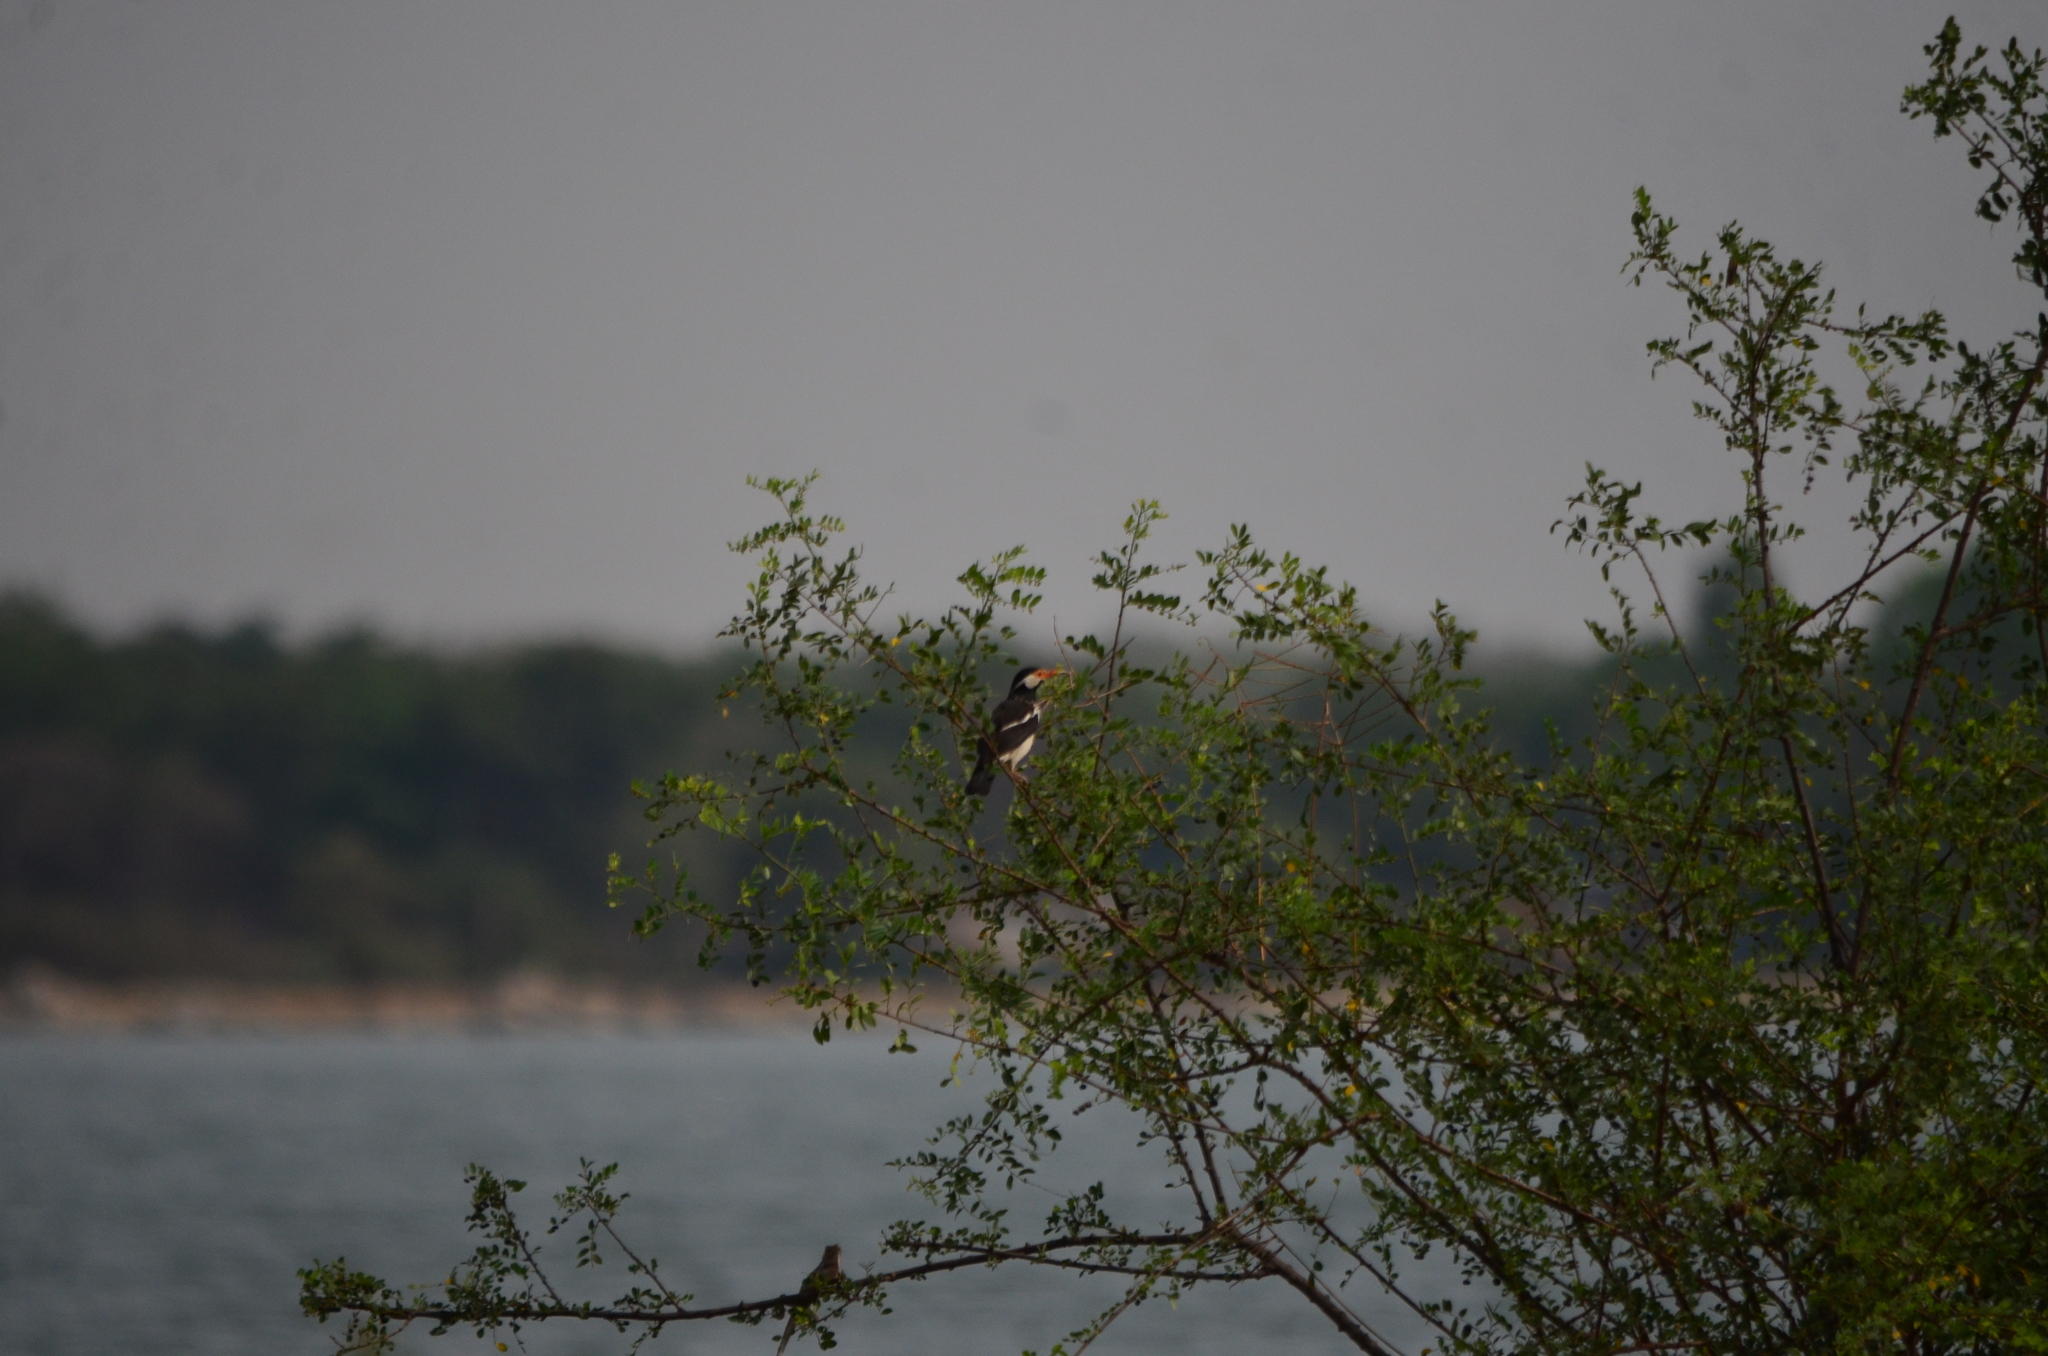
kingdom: Animalia
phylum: Chordata
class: Aves
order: Passeriformes
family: Sturnidae
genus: Gracupica
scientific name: Gracupica contra
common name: Pied myna
